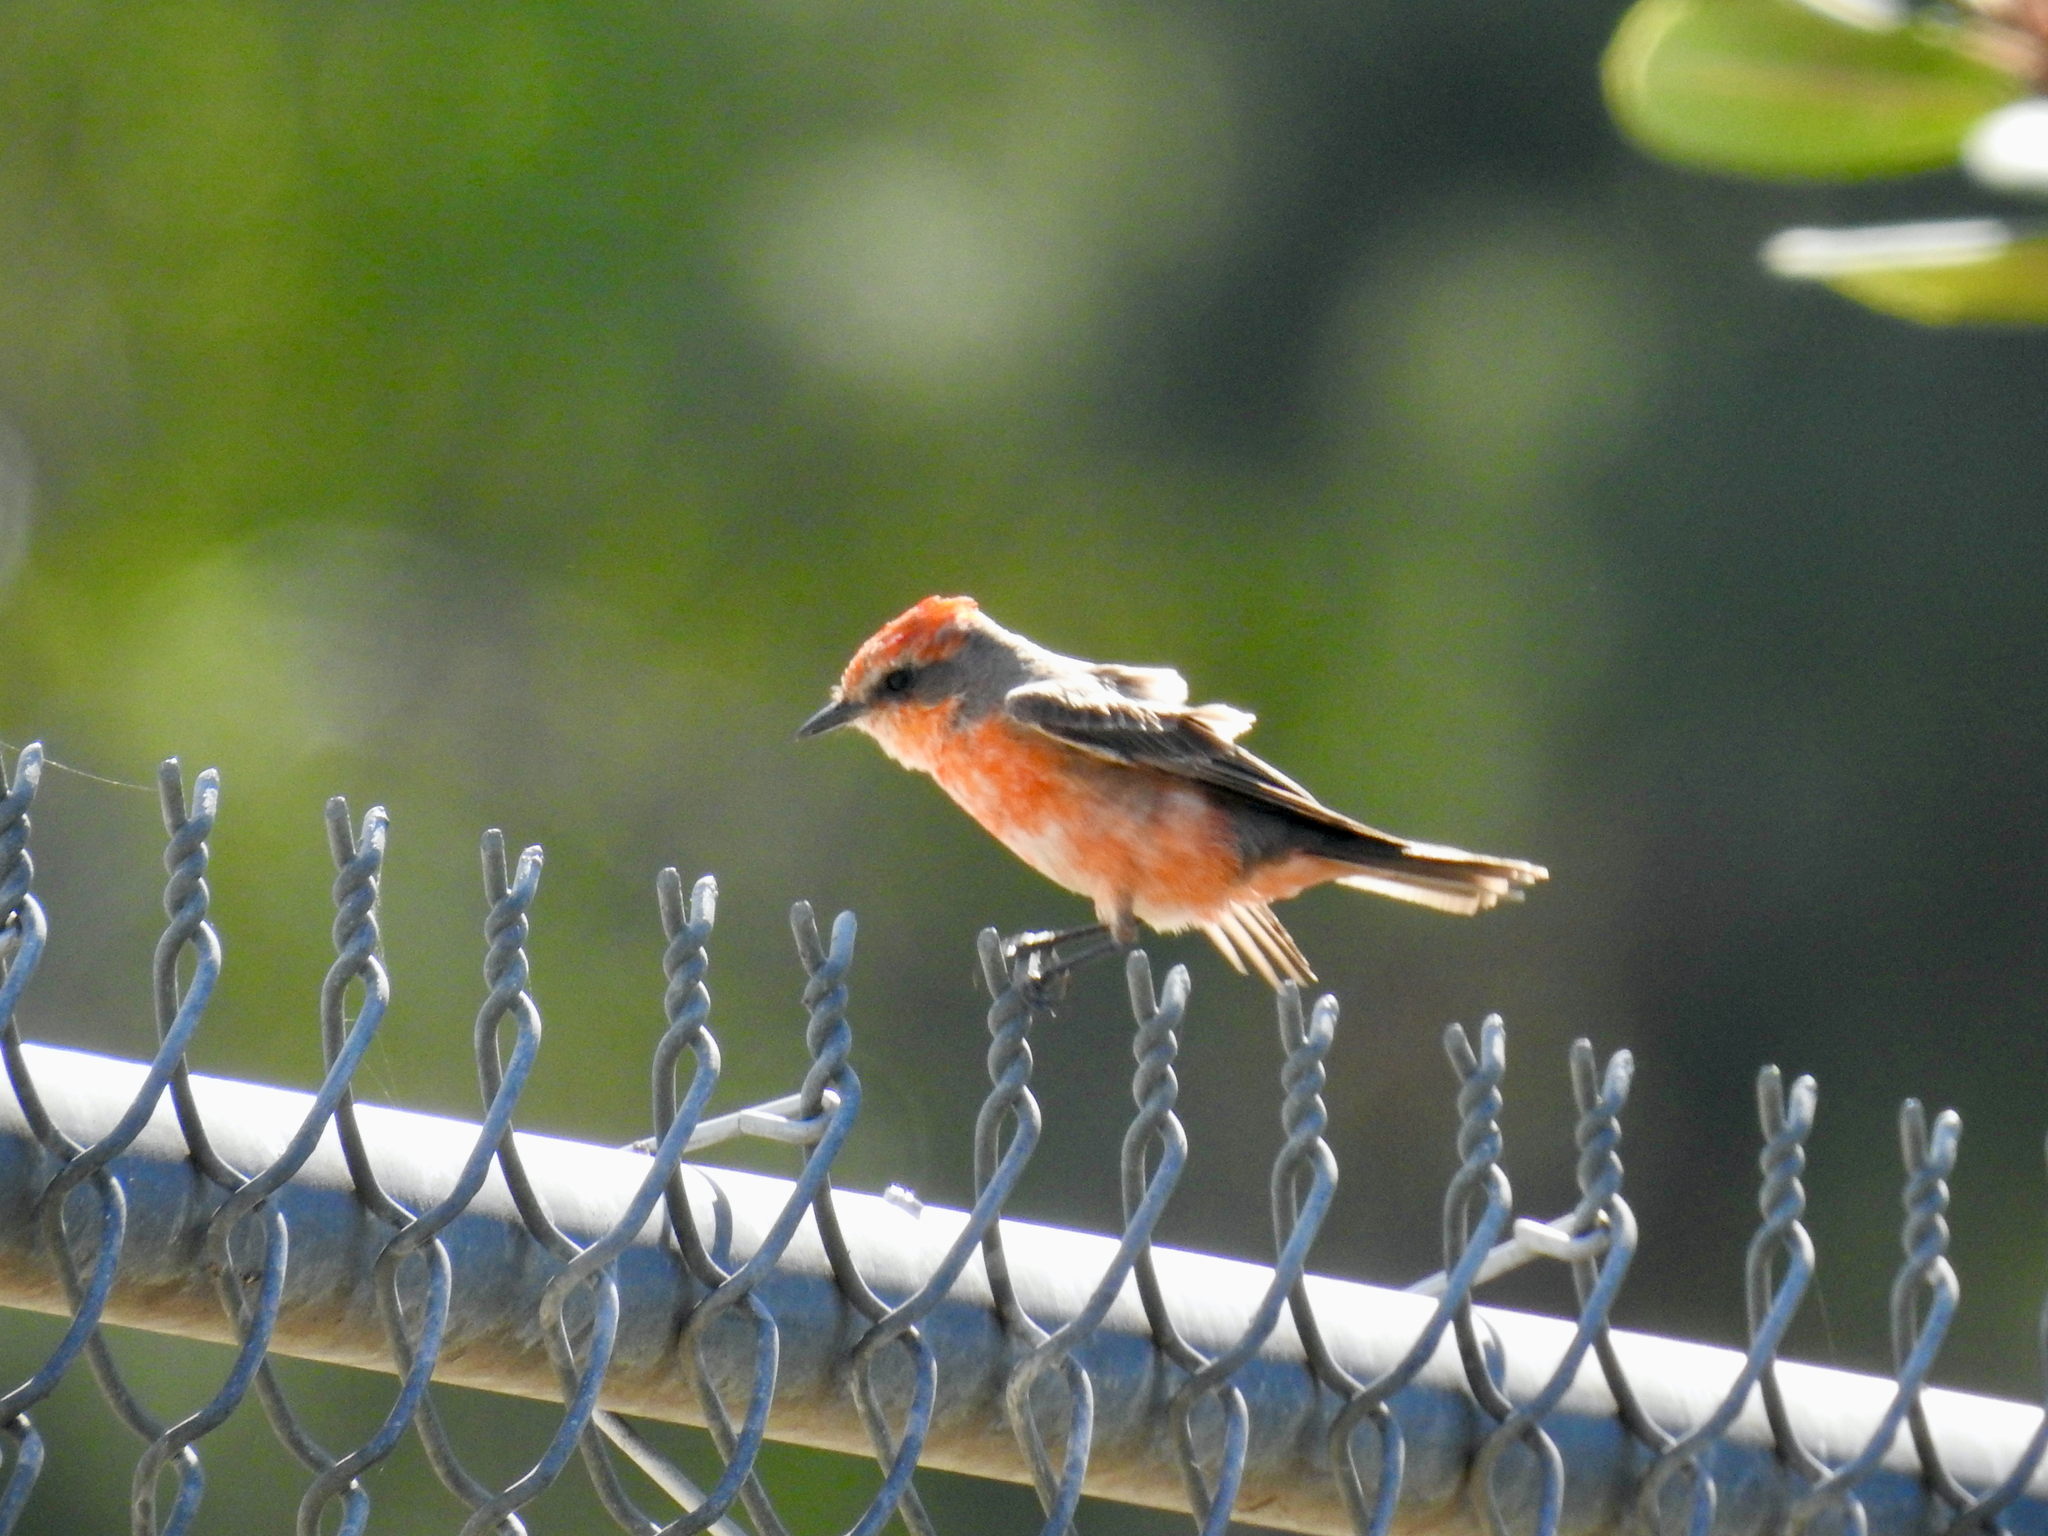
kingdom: Animalia
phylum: Chordata
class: Aves
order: Passeriformes
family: Tyrannidae
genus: Pyrocephalus
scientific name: Pyrocephalus rubinus
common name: Vermilion flycatcher
